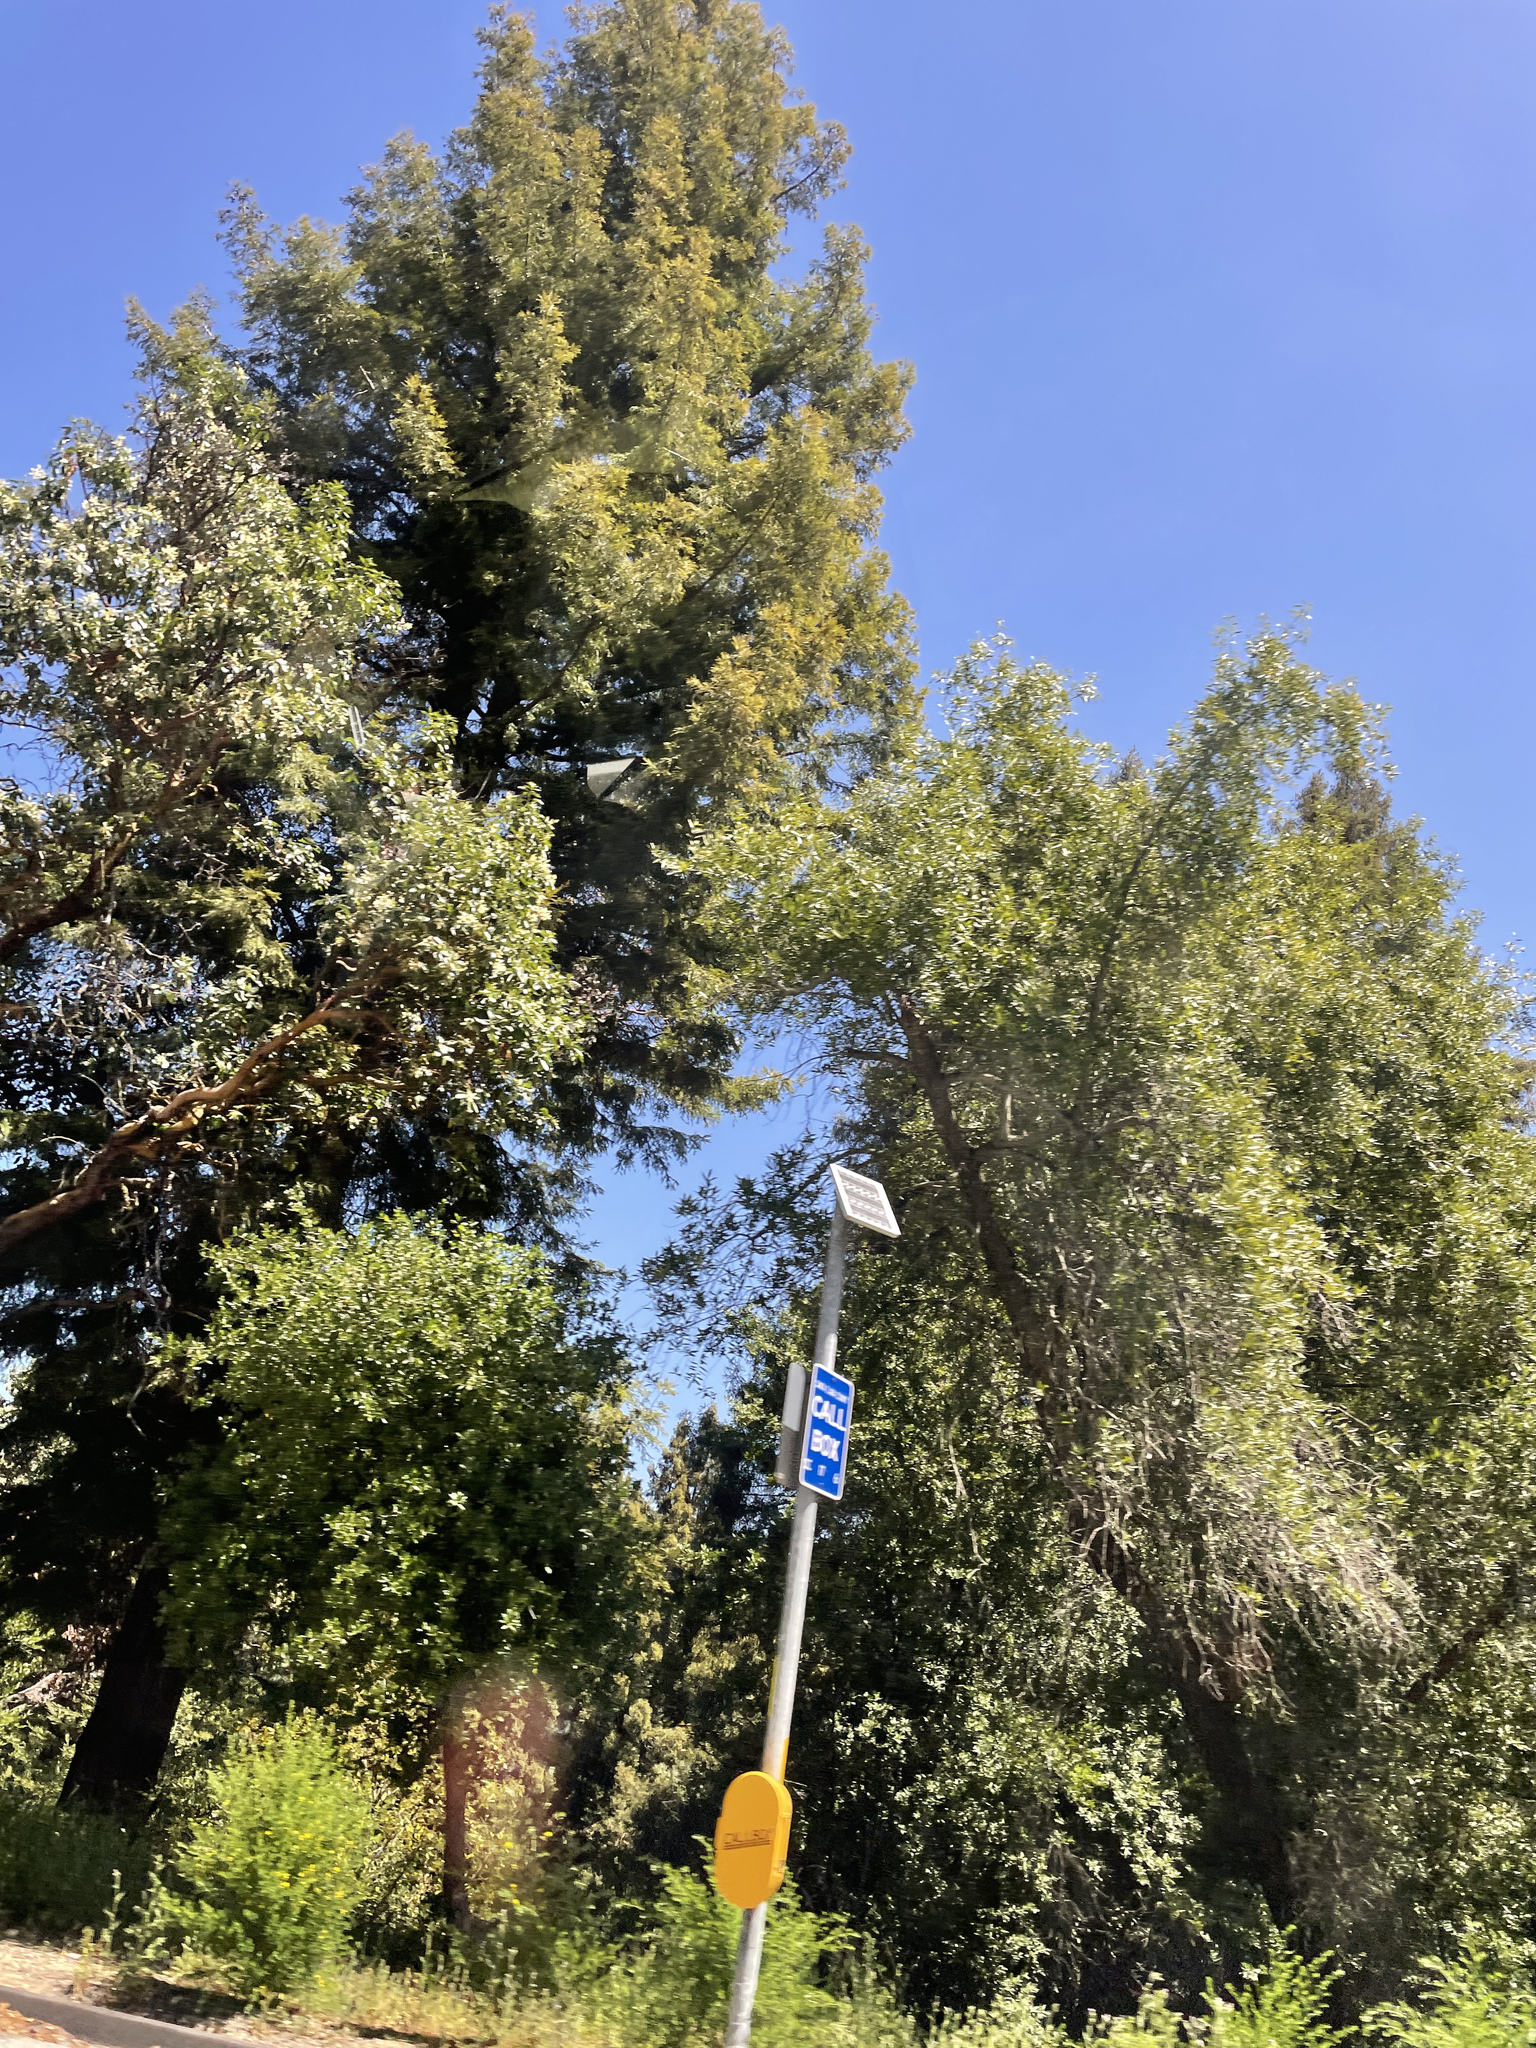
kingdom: Plantae
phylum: Tracheophyta
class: Pinopsida
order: Pinales
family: Cupressaceae
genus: Sequoia
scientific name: Sequoia sempervirens
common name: Coast redwood
